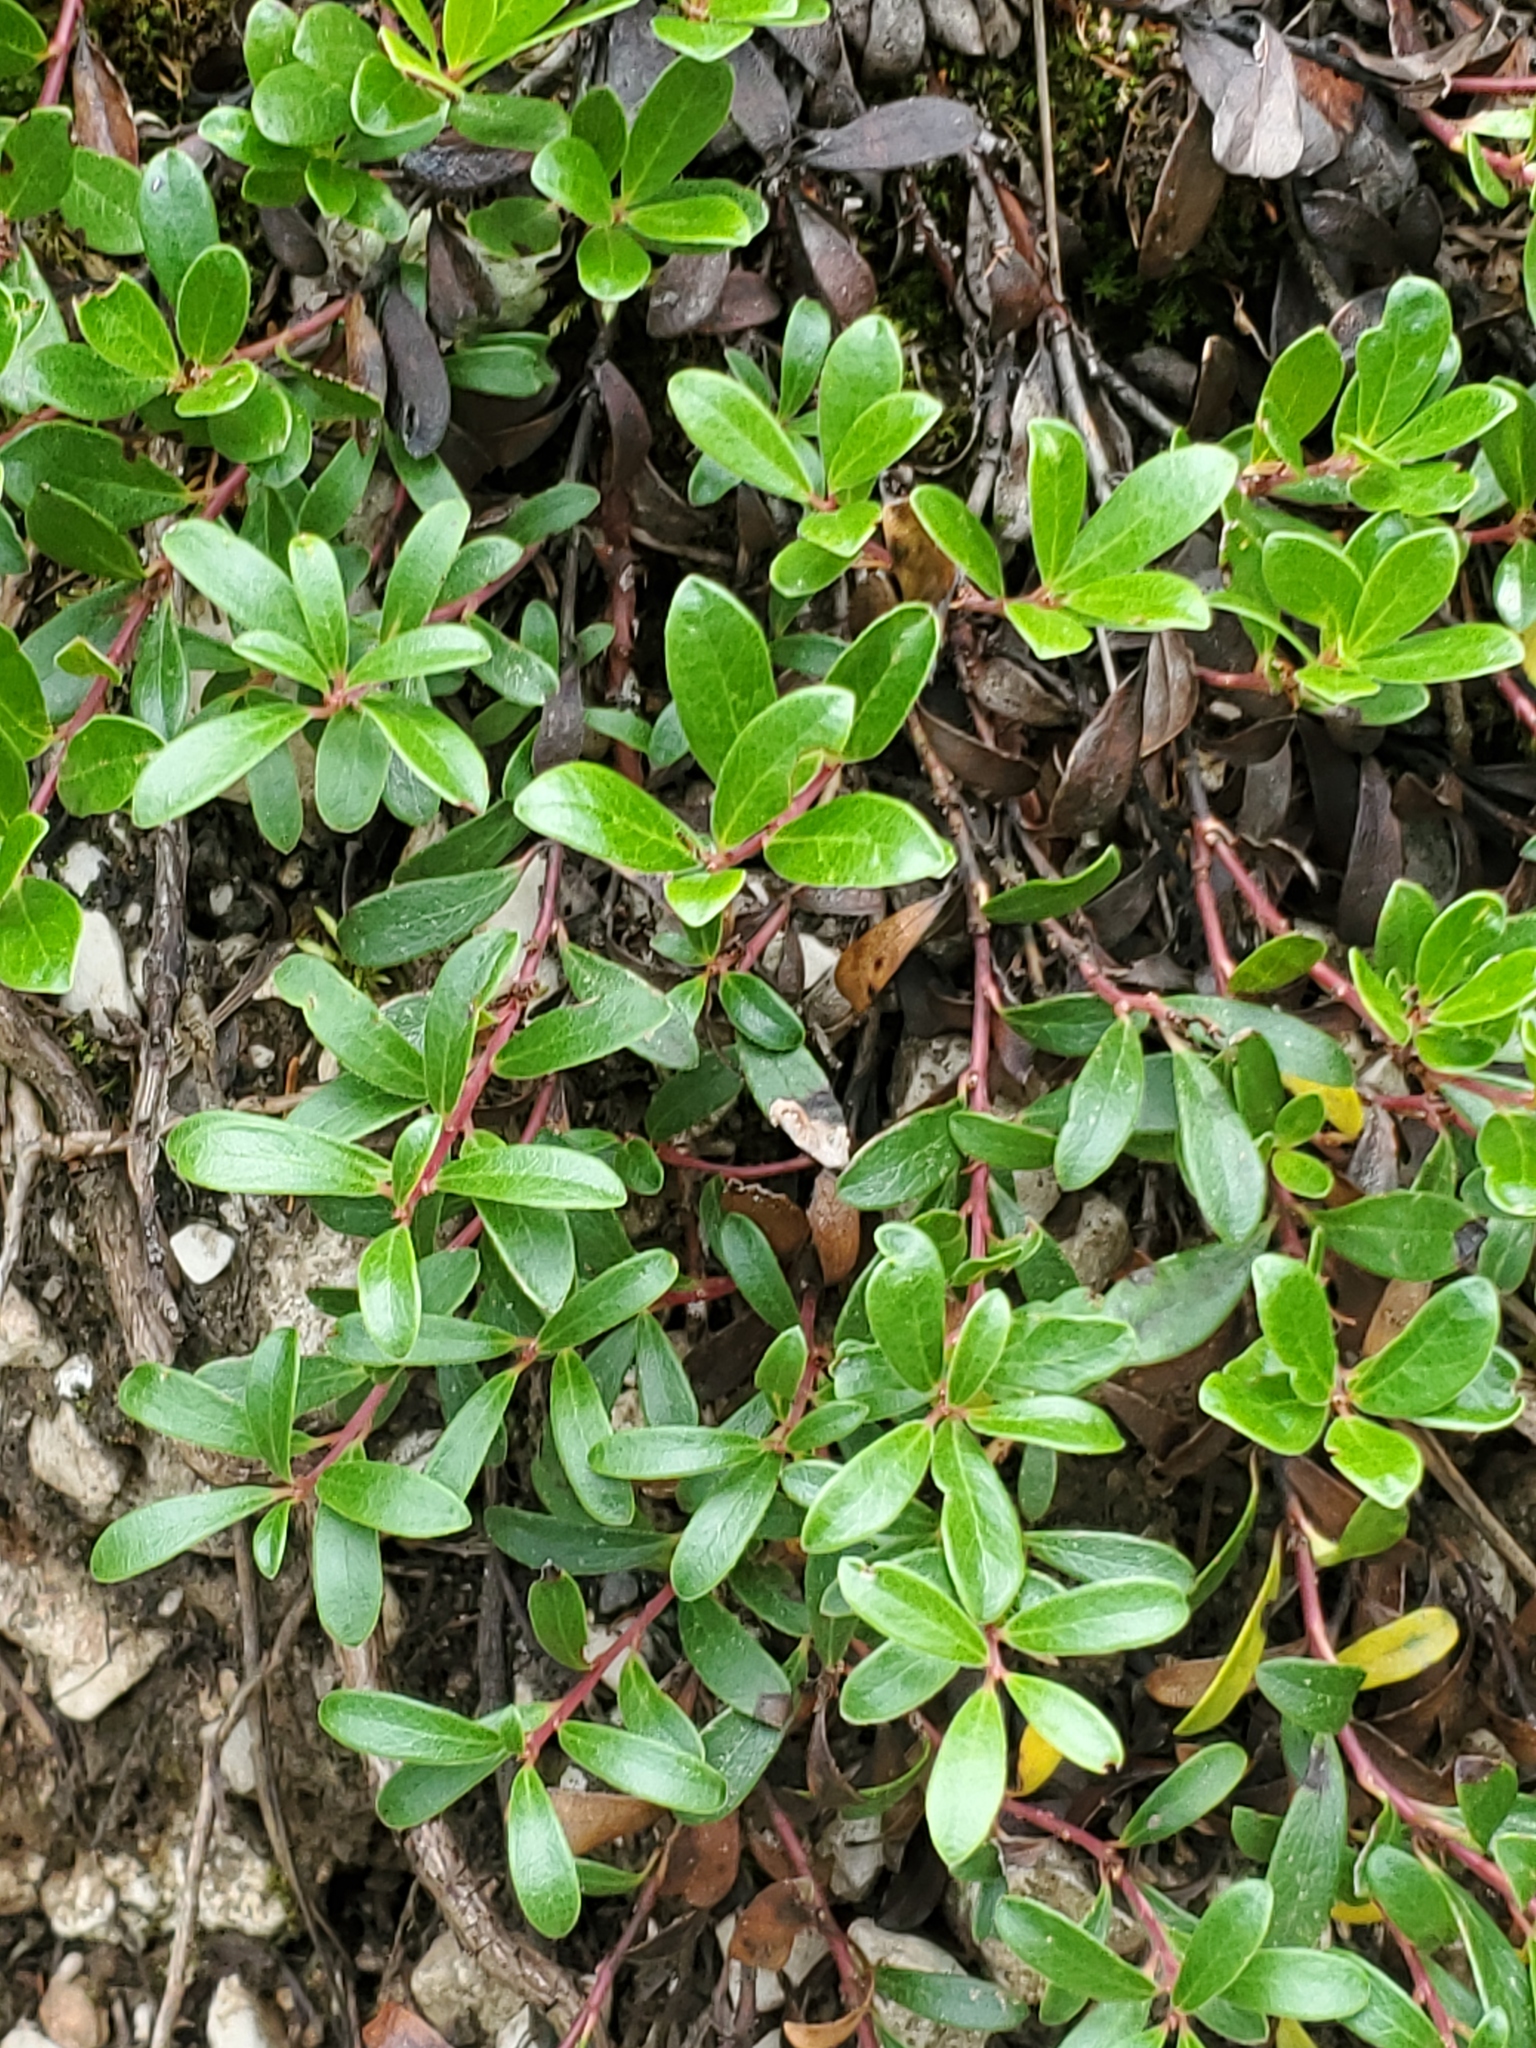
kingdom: Plantae
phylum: Tracheophyta
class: Magnoliopsida
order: Ericales
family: Ericaceae
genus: Arctostaphylos
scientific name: Arctostaphylos uva-ursi
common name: Bearberry
